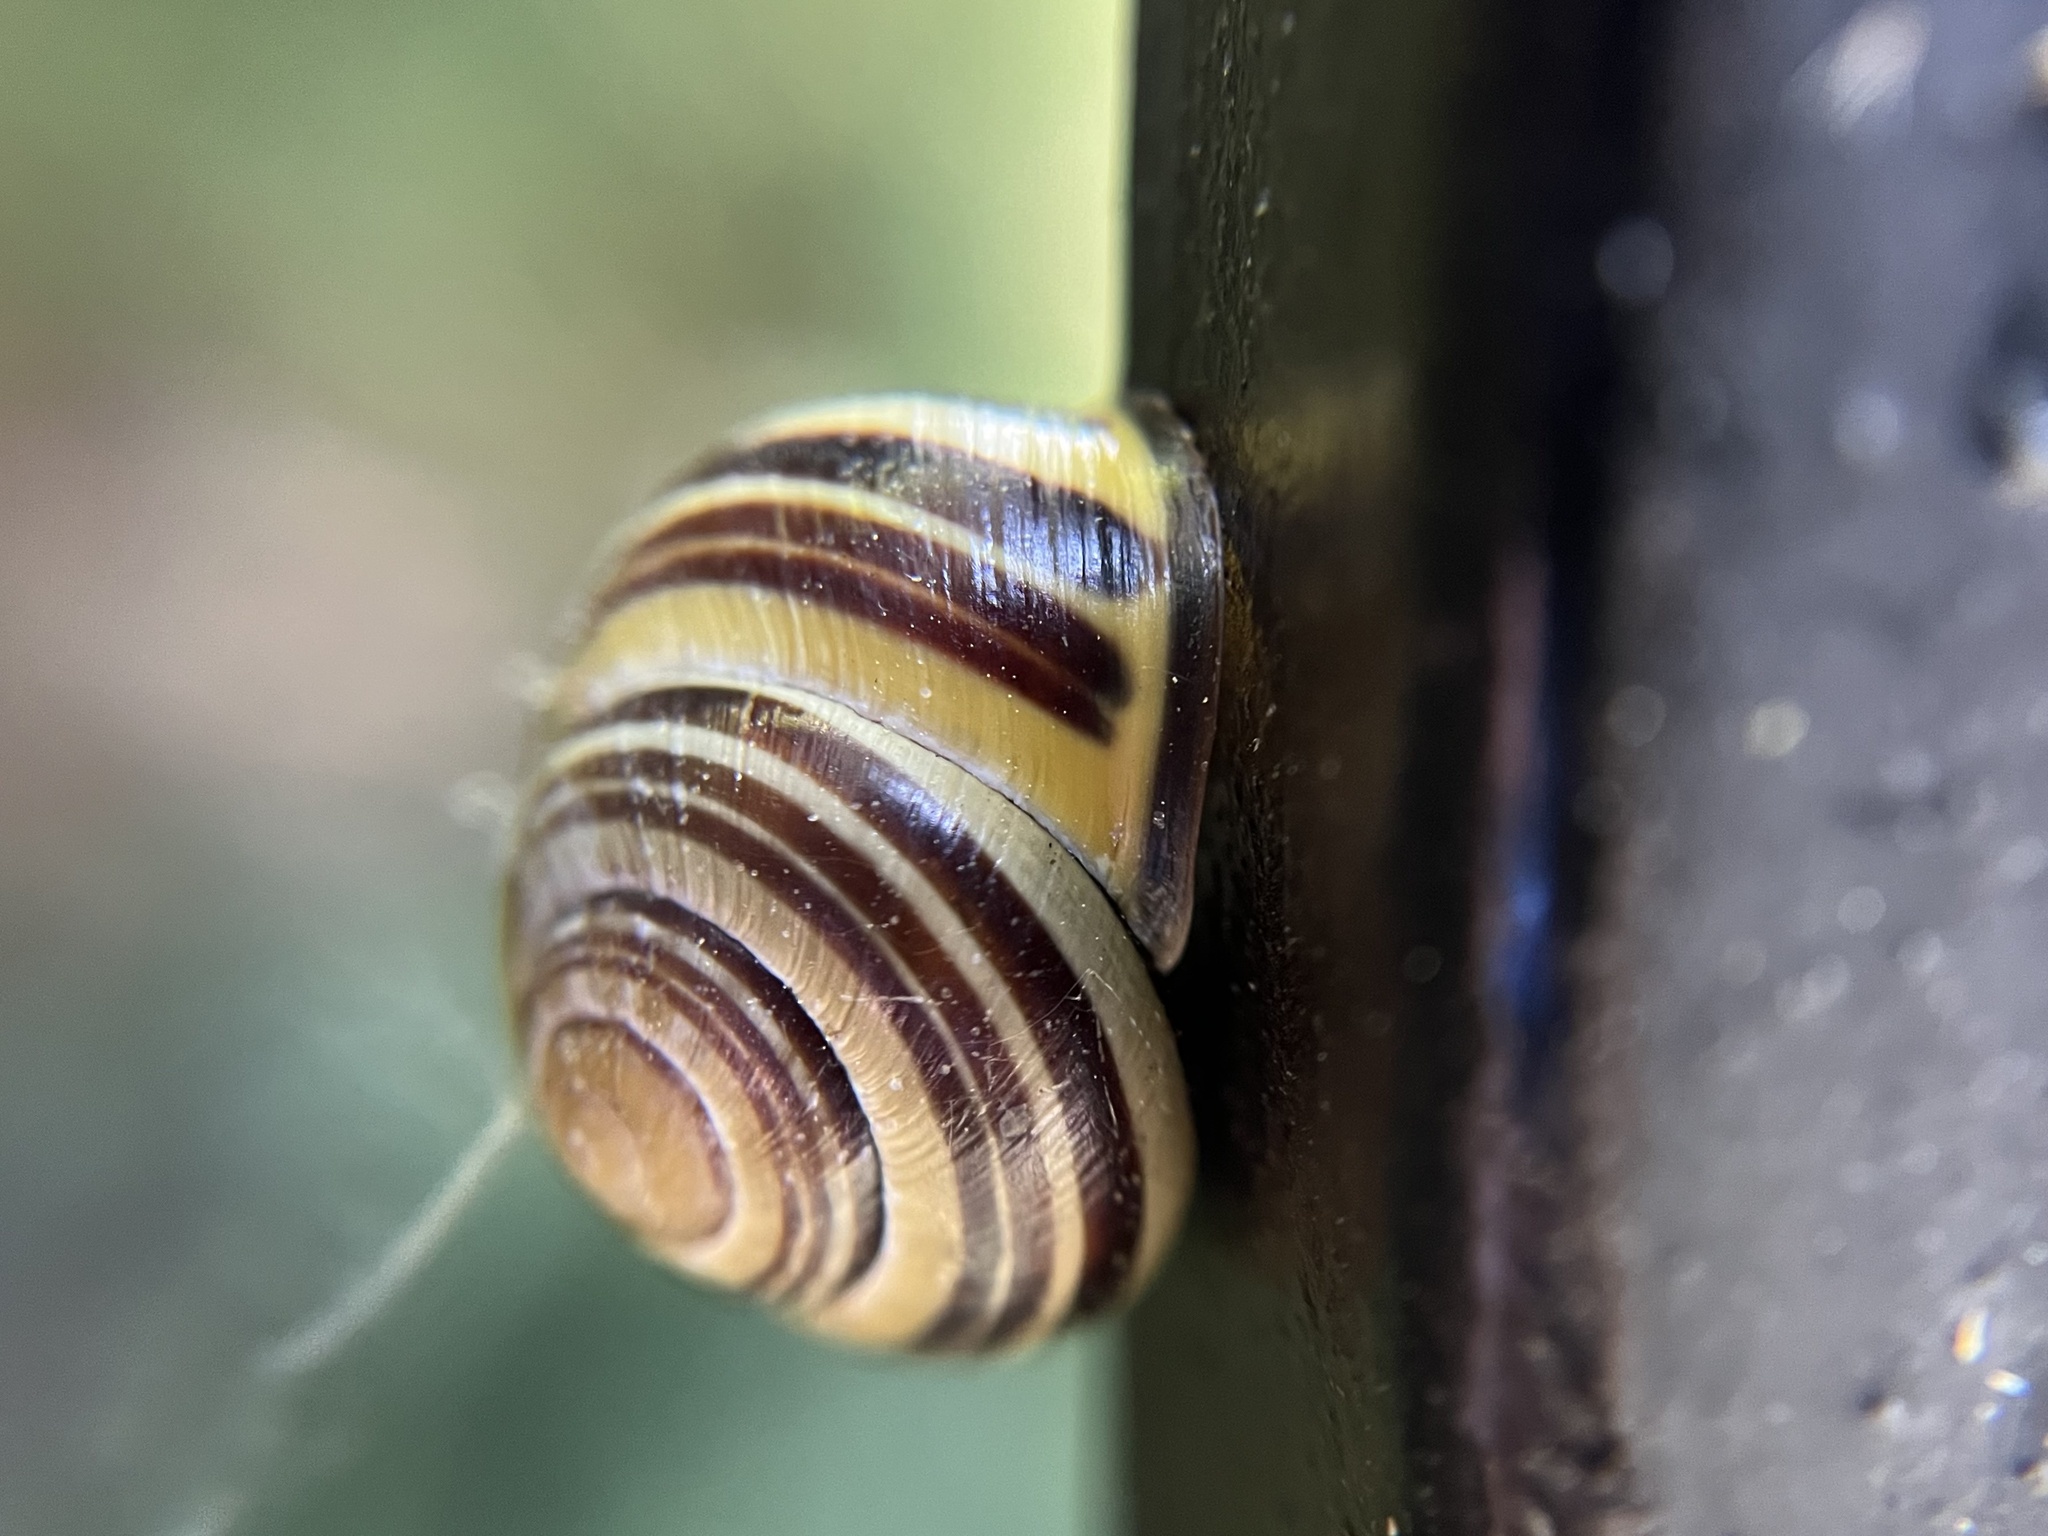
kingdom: Animalia
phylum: Mollusca
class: Gastropoda
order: Stylommatophora
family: Helicidae
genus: Cepaea
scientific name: Cepaea nemoralis
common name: Grovesnail
